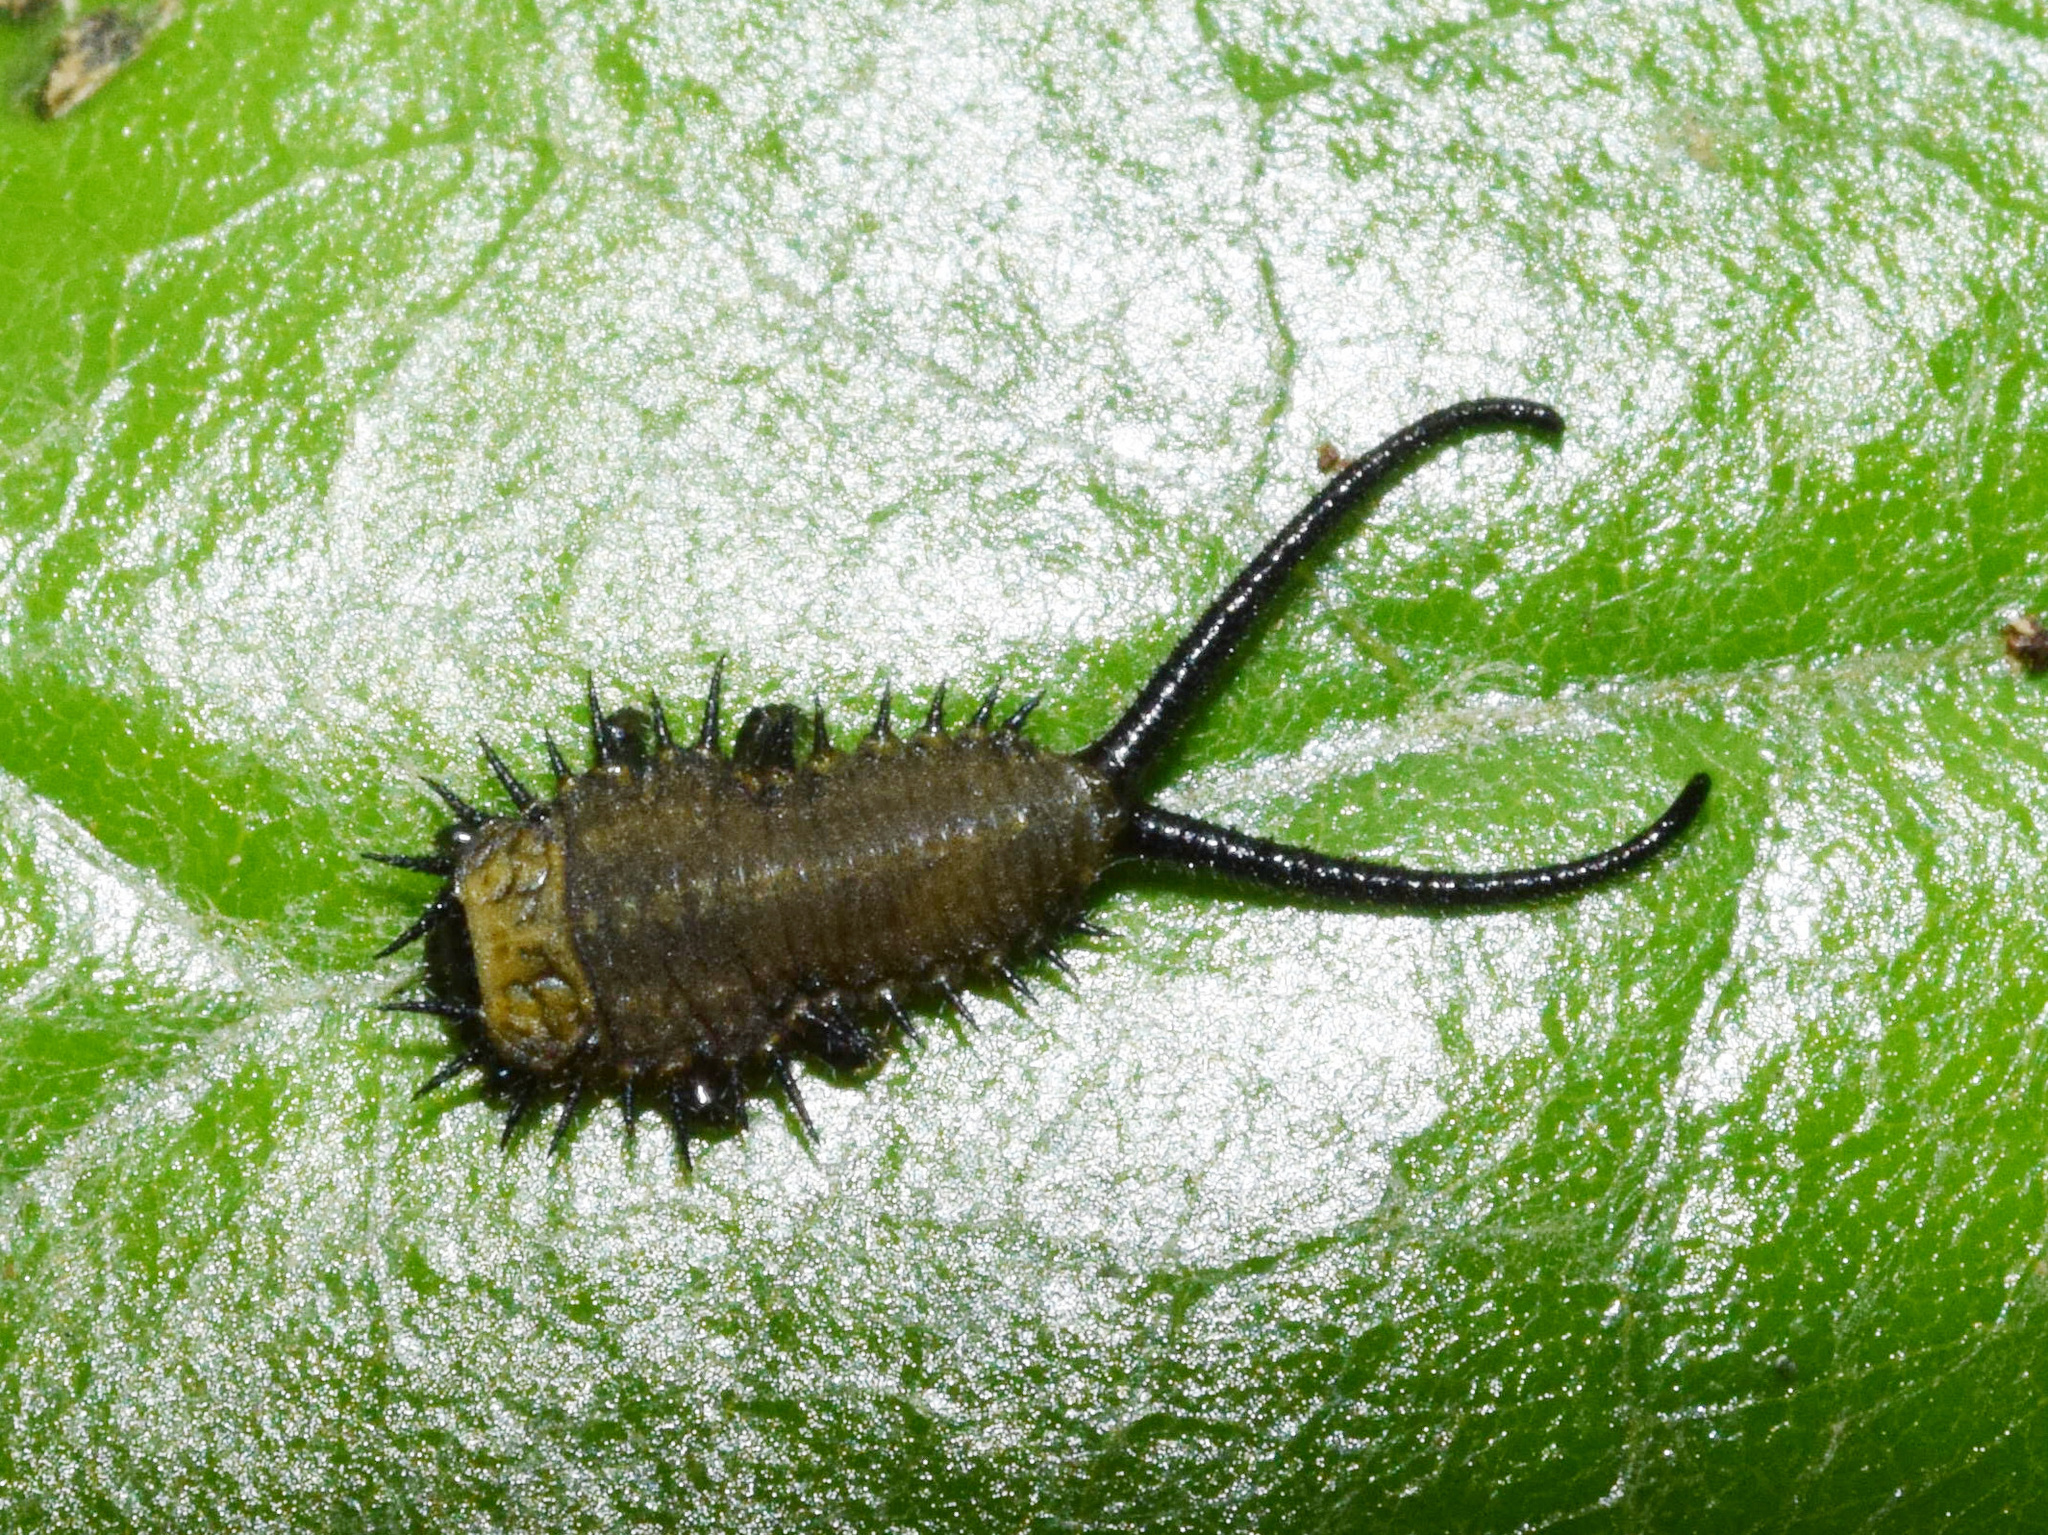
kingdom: Animalia
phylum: Arthropoda
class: Insecta
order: Coleoptera
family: Chrysomelidae
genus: Basipta
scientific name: Basipta stolida
